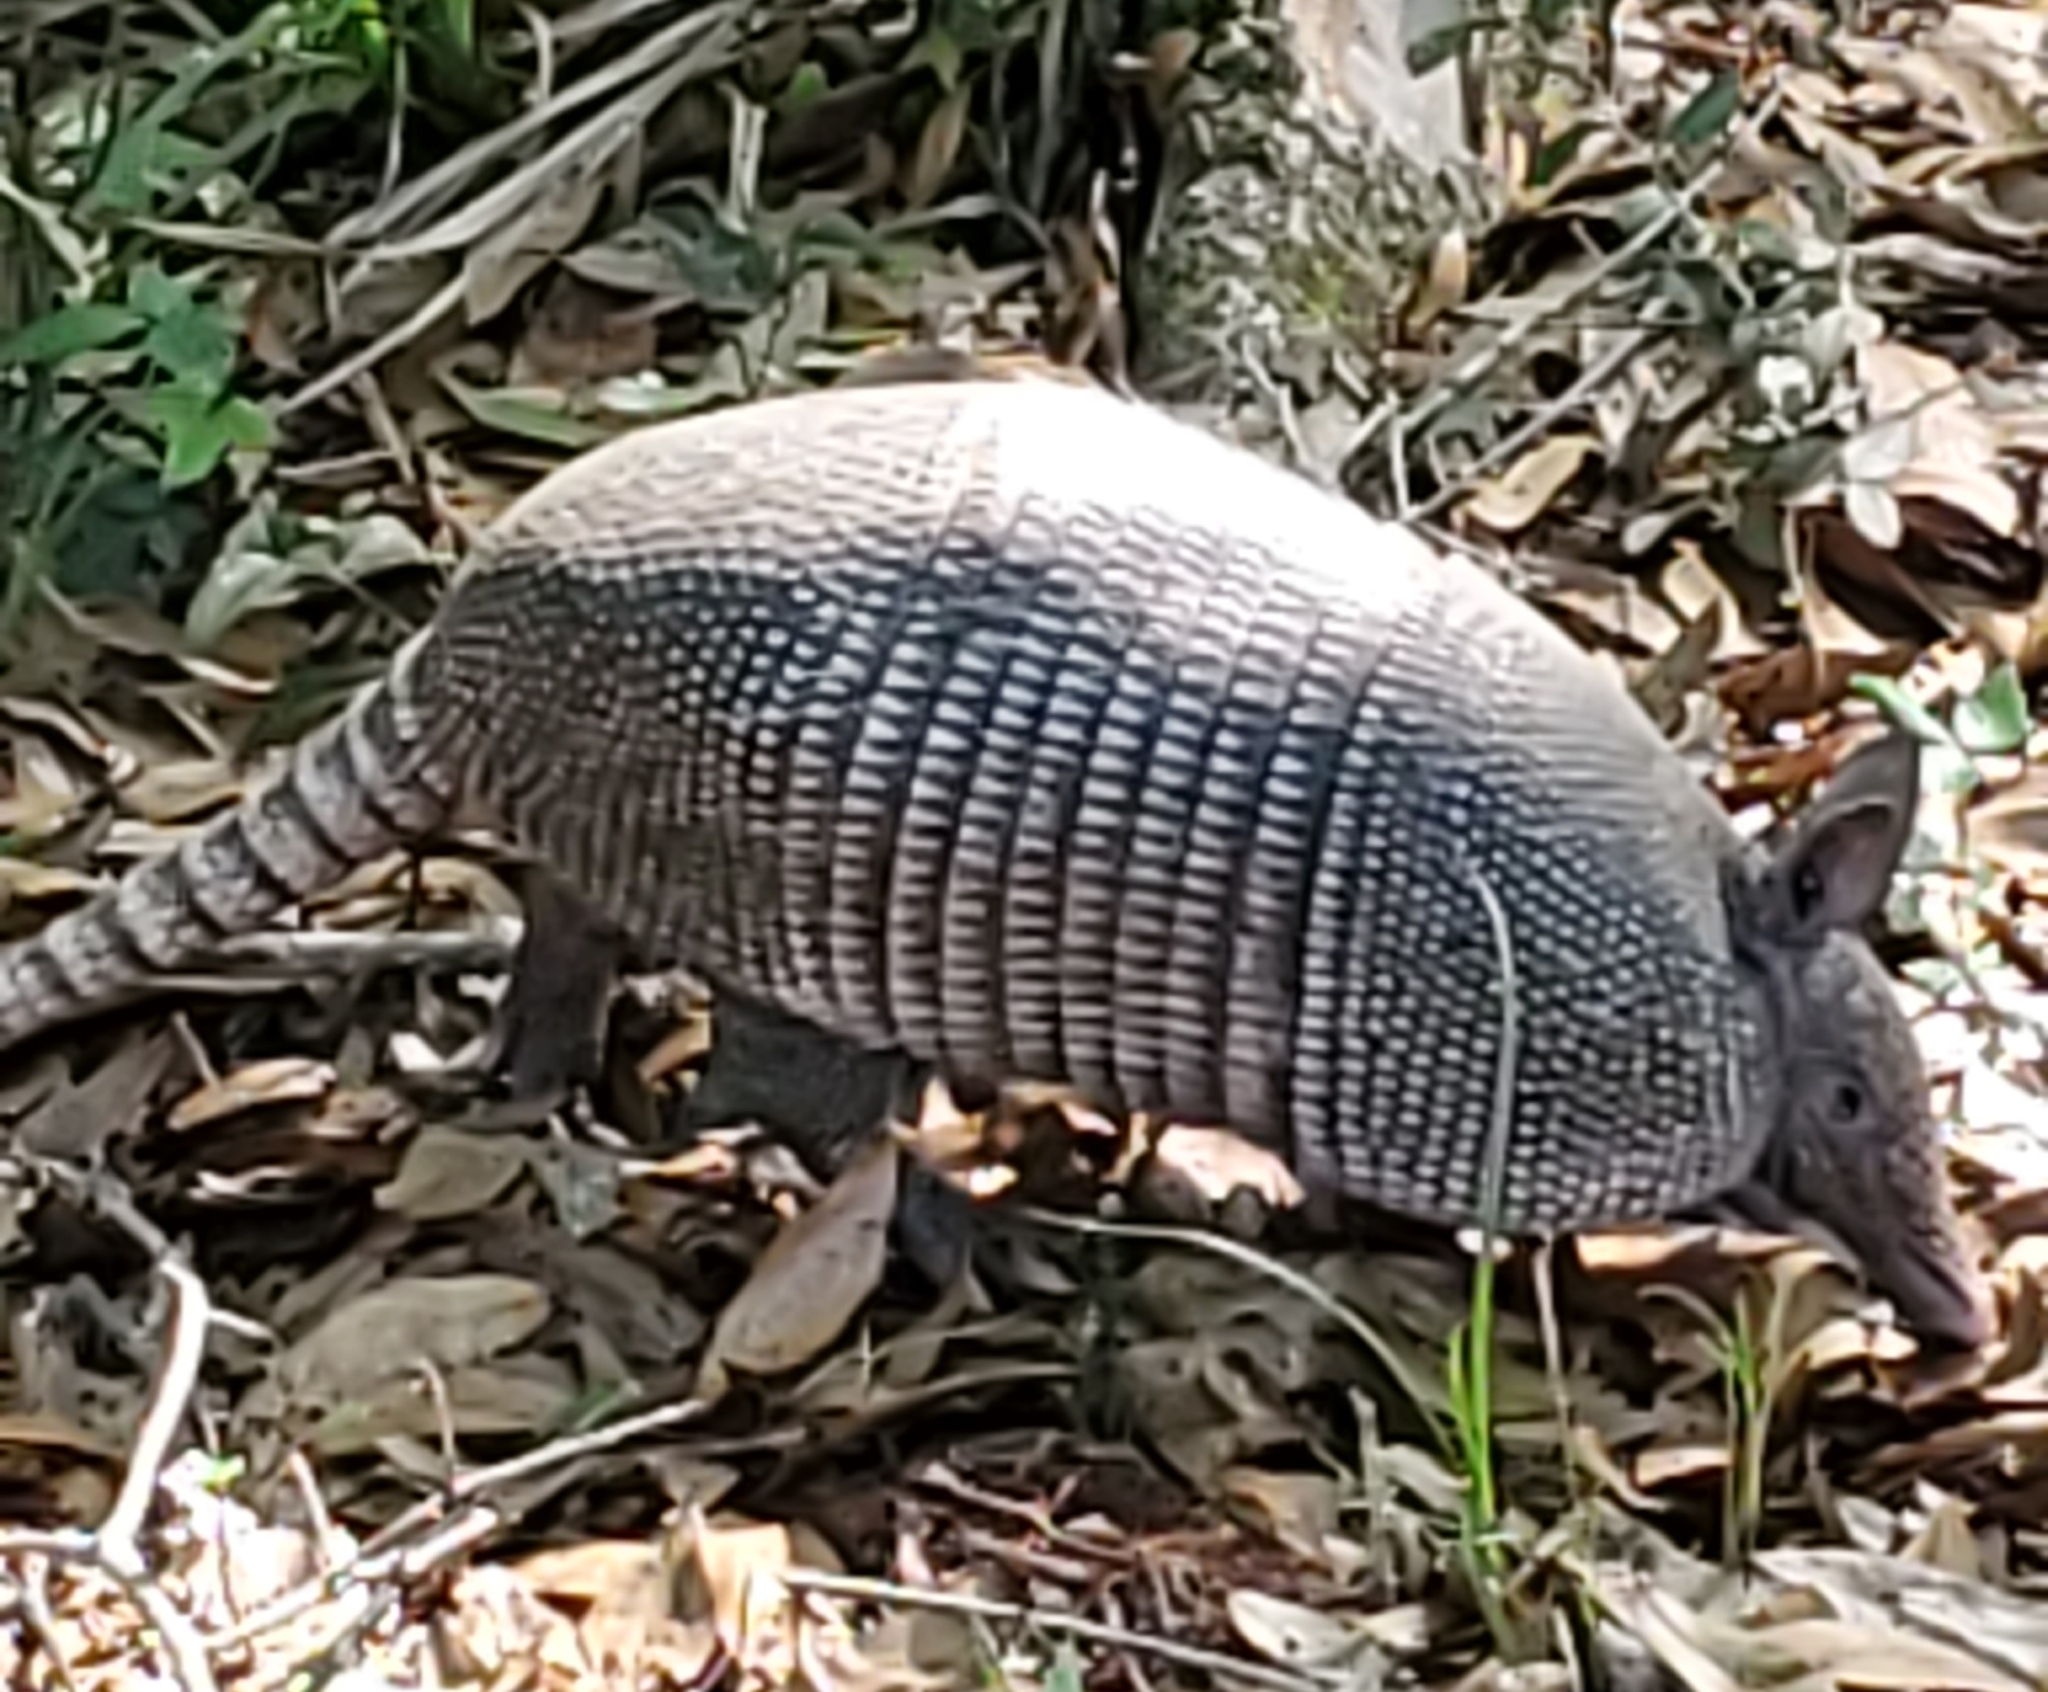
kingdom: Animalia
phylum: Chordata
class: Mammalia
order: Cingulata
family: Dasypodidae
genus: Dasypus
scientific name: Dasypus novemcinctus
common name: Nine-banded armadillo
